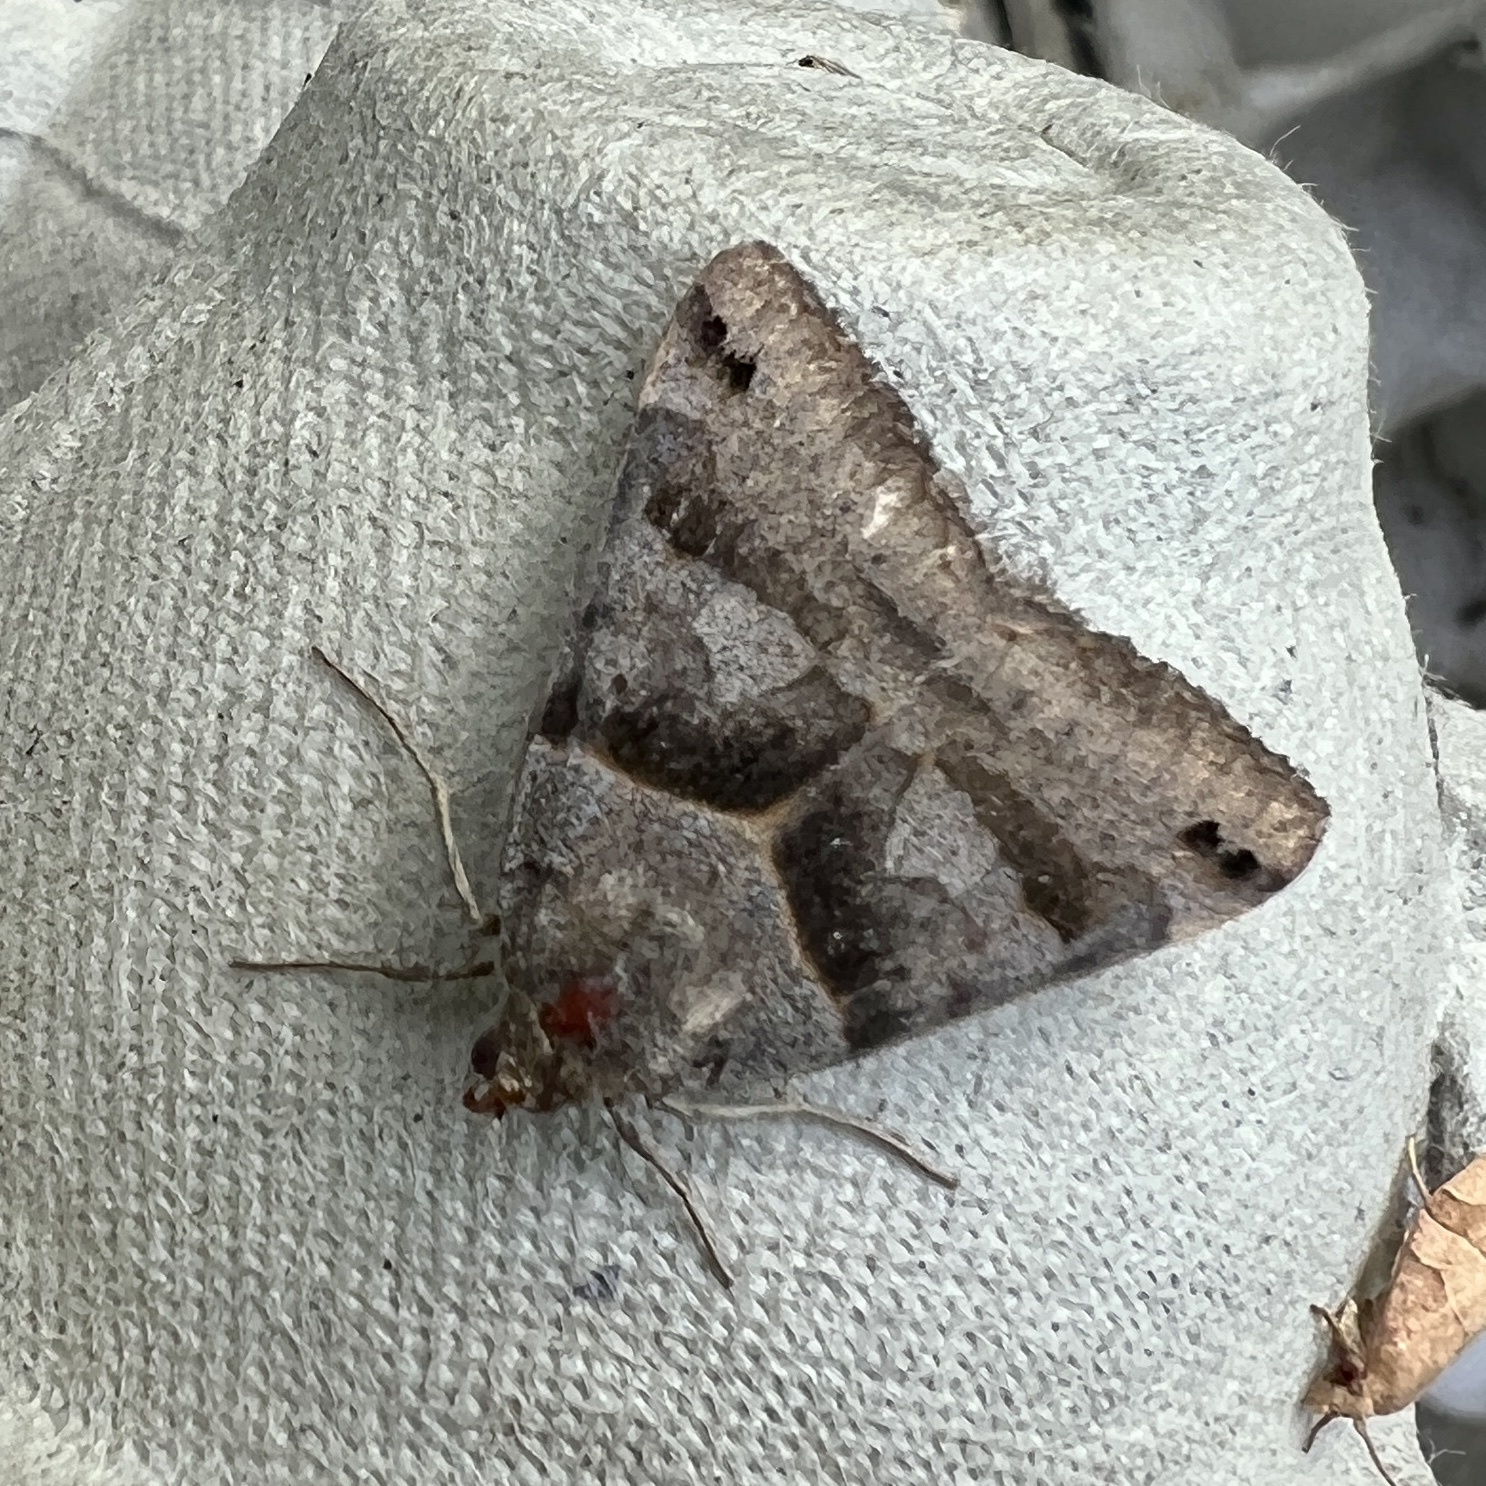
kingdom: Animalia
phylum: Arthropoda
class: Insecta
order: Lepidoptera
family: Erebidae
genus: Caenurgina
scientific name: Caenurgina crassiuscula
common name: Double-barred
